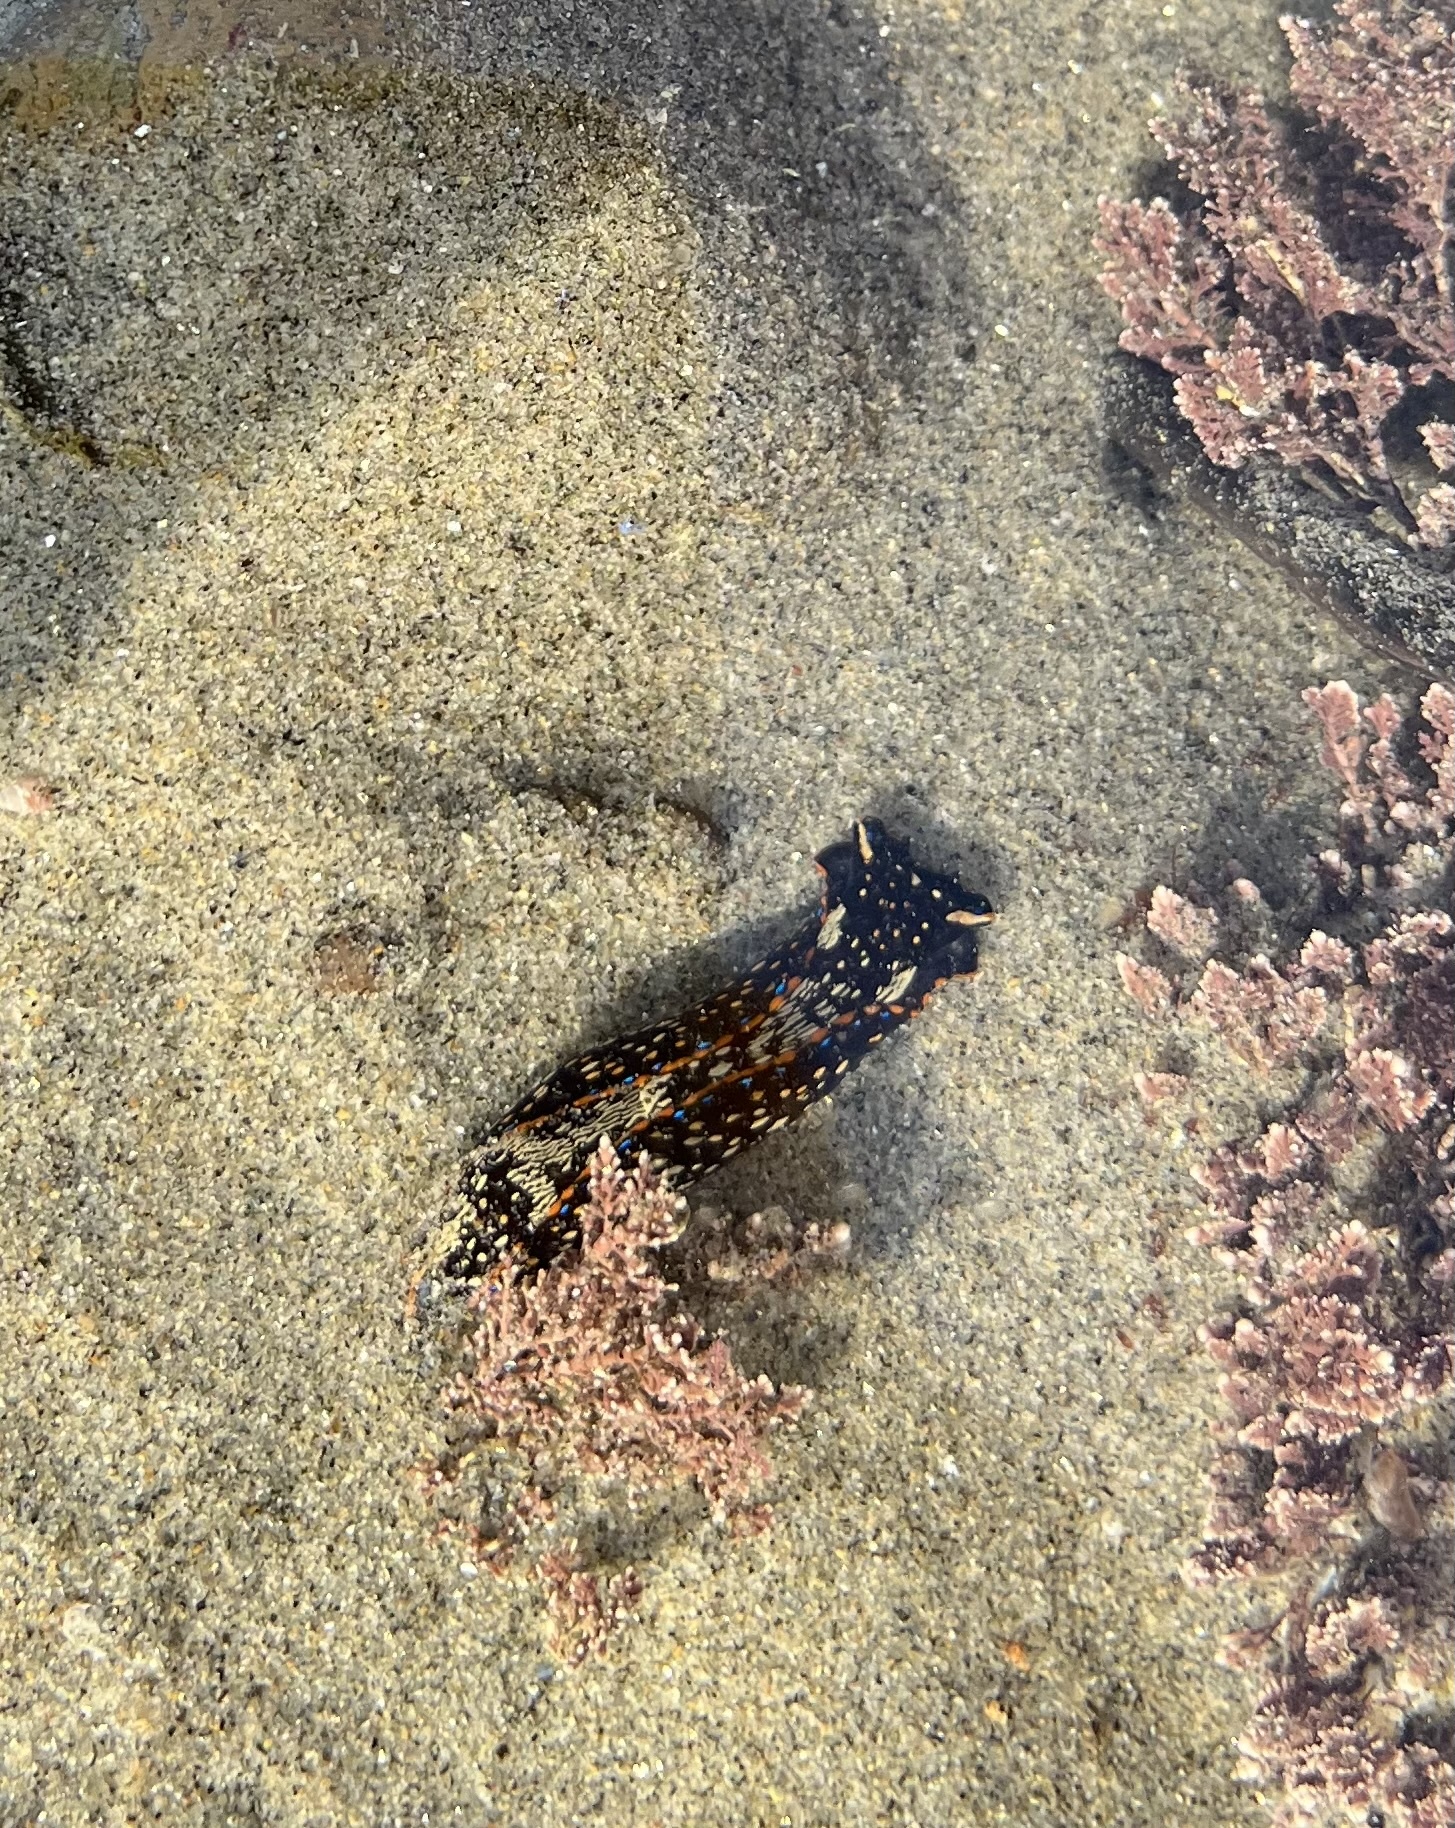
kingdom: Animalia
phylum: Mollusca
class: Gastropoda
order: Cephalaspidea
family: Aglajidae
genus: Navanax
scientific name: Navanax inermis
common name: California aglaja
